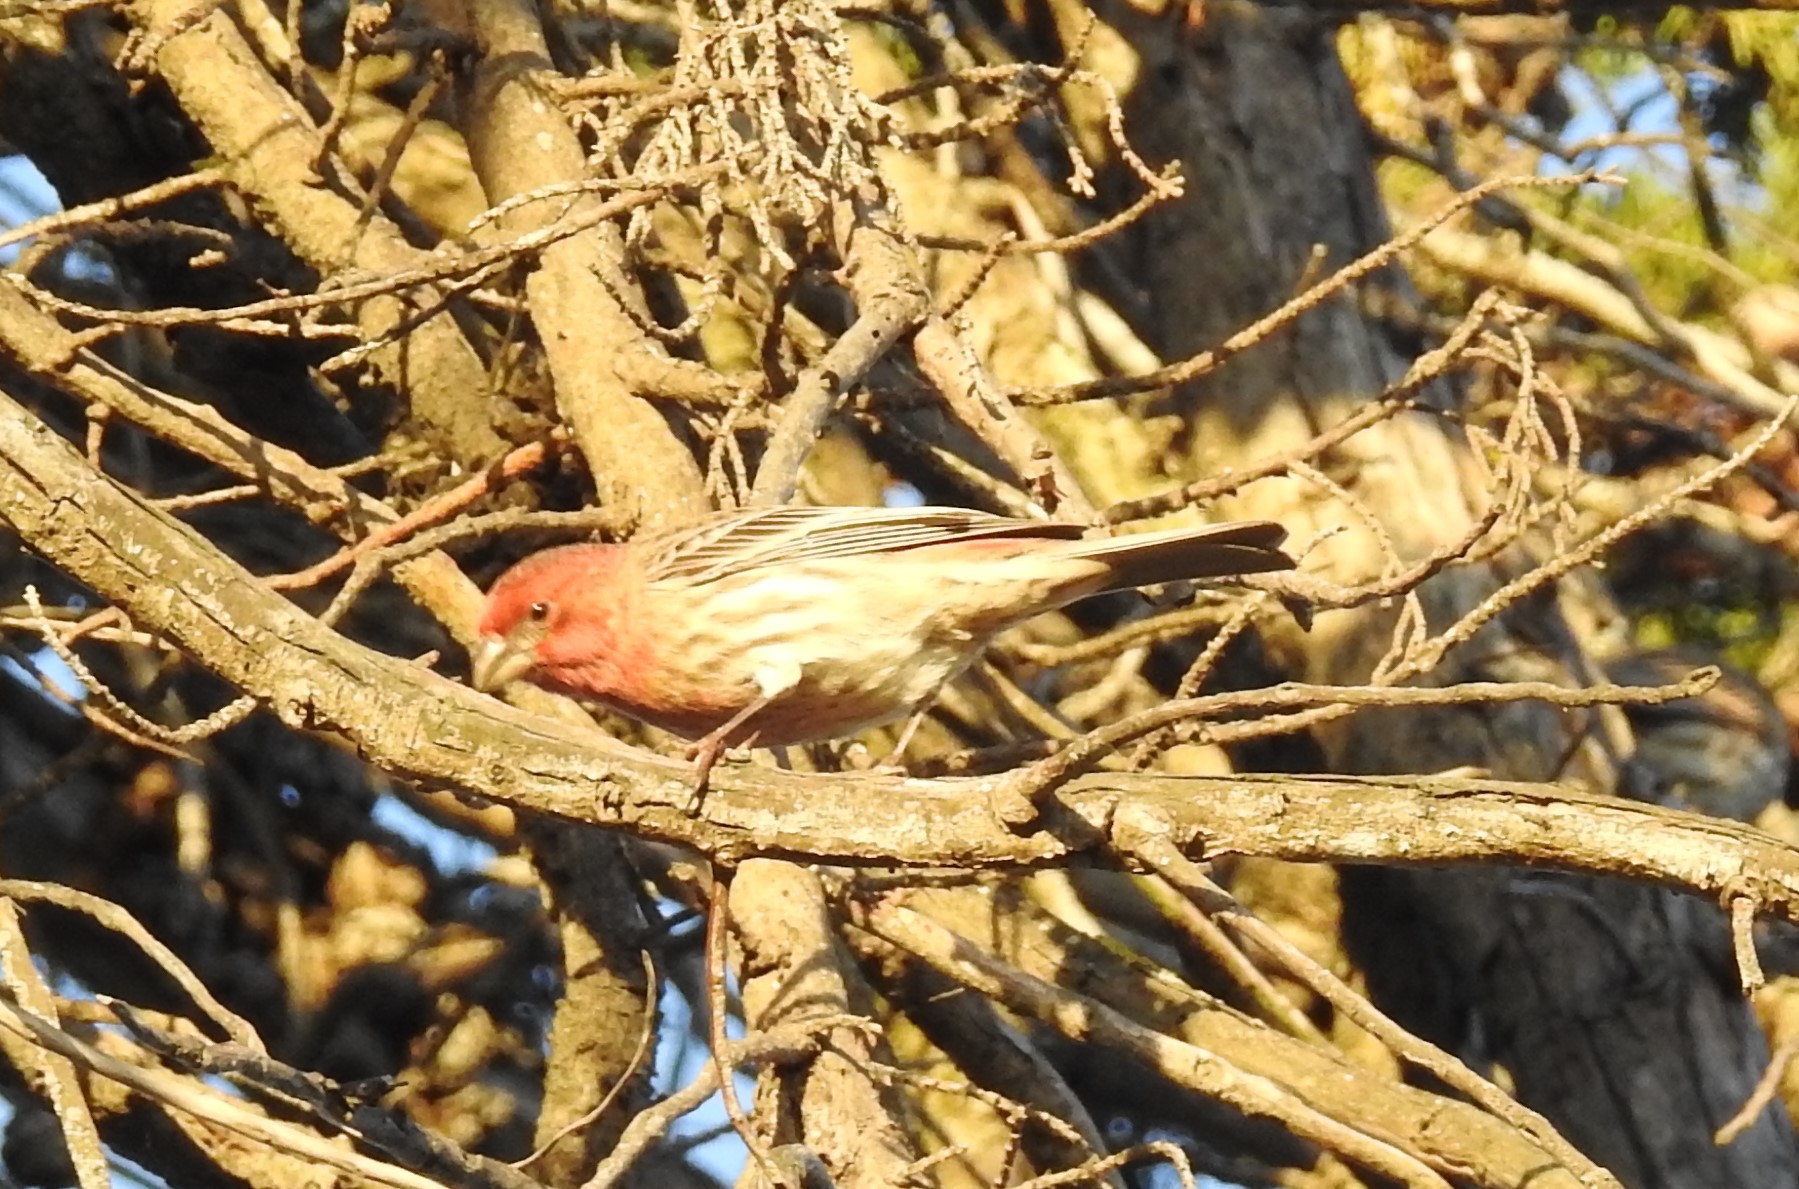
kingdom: Animalia
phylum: Chordata
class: Aves
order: Passeriformes
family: Fringillidae
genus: Haemorhous
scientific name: Haemorhous mexicanus
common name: House finch
